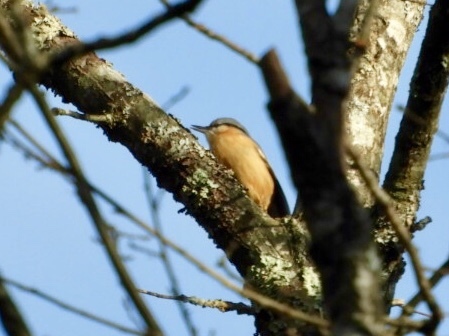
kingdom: Animalia
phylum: Chordata
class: Aves
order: Passeriformes
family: Sittidae
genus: Sitta
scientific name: Sitta europaea
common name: Eurasian nuthatch
